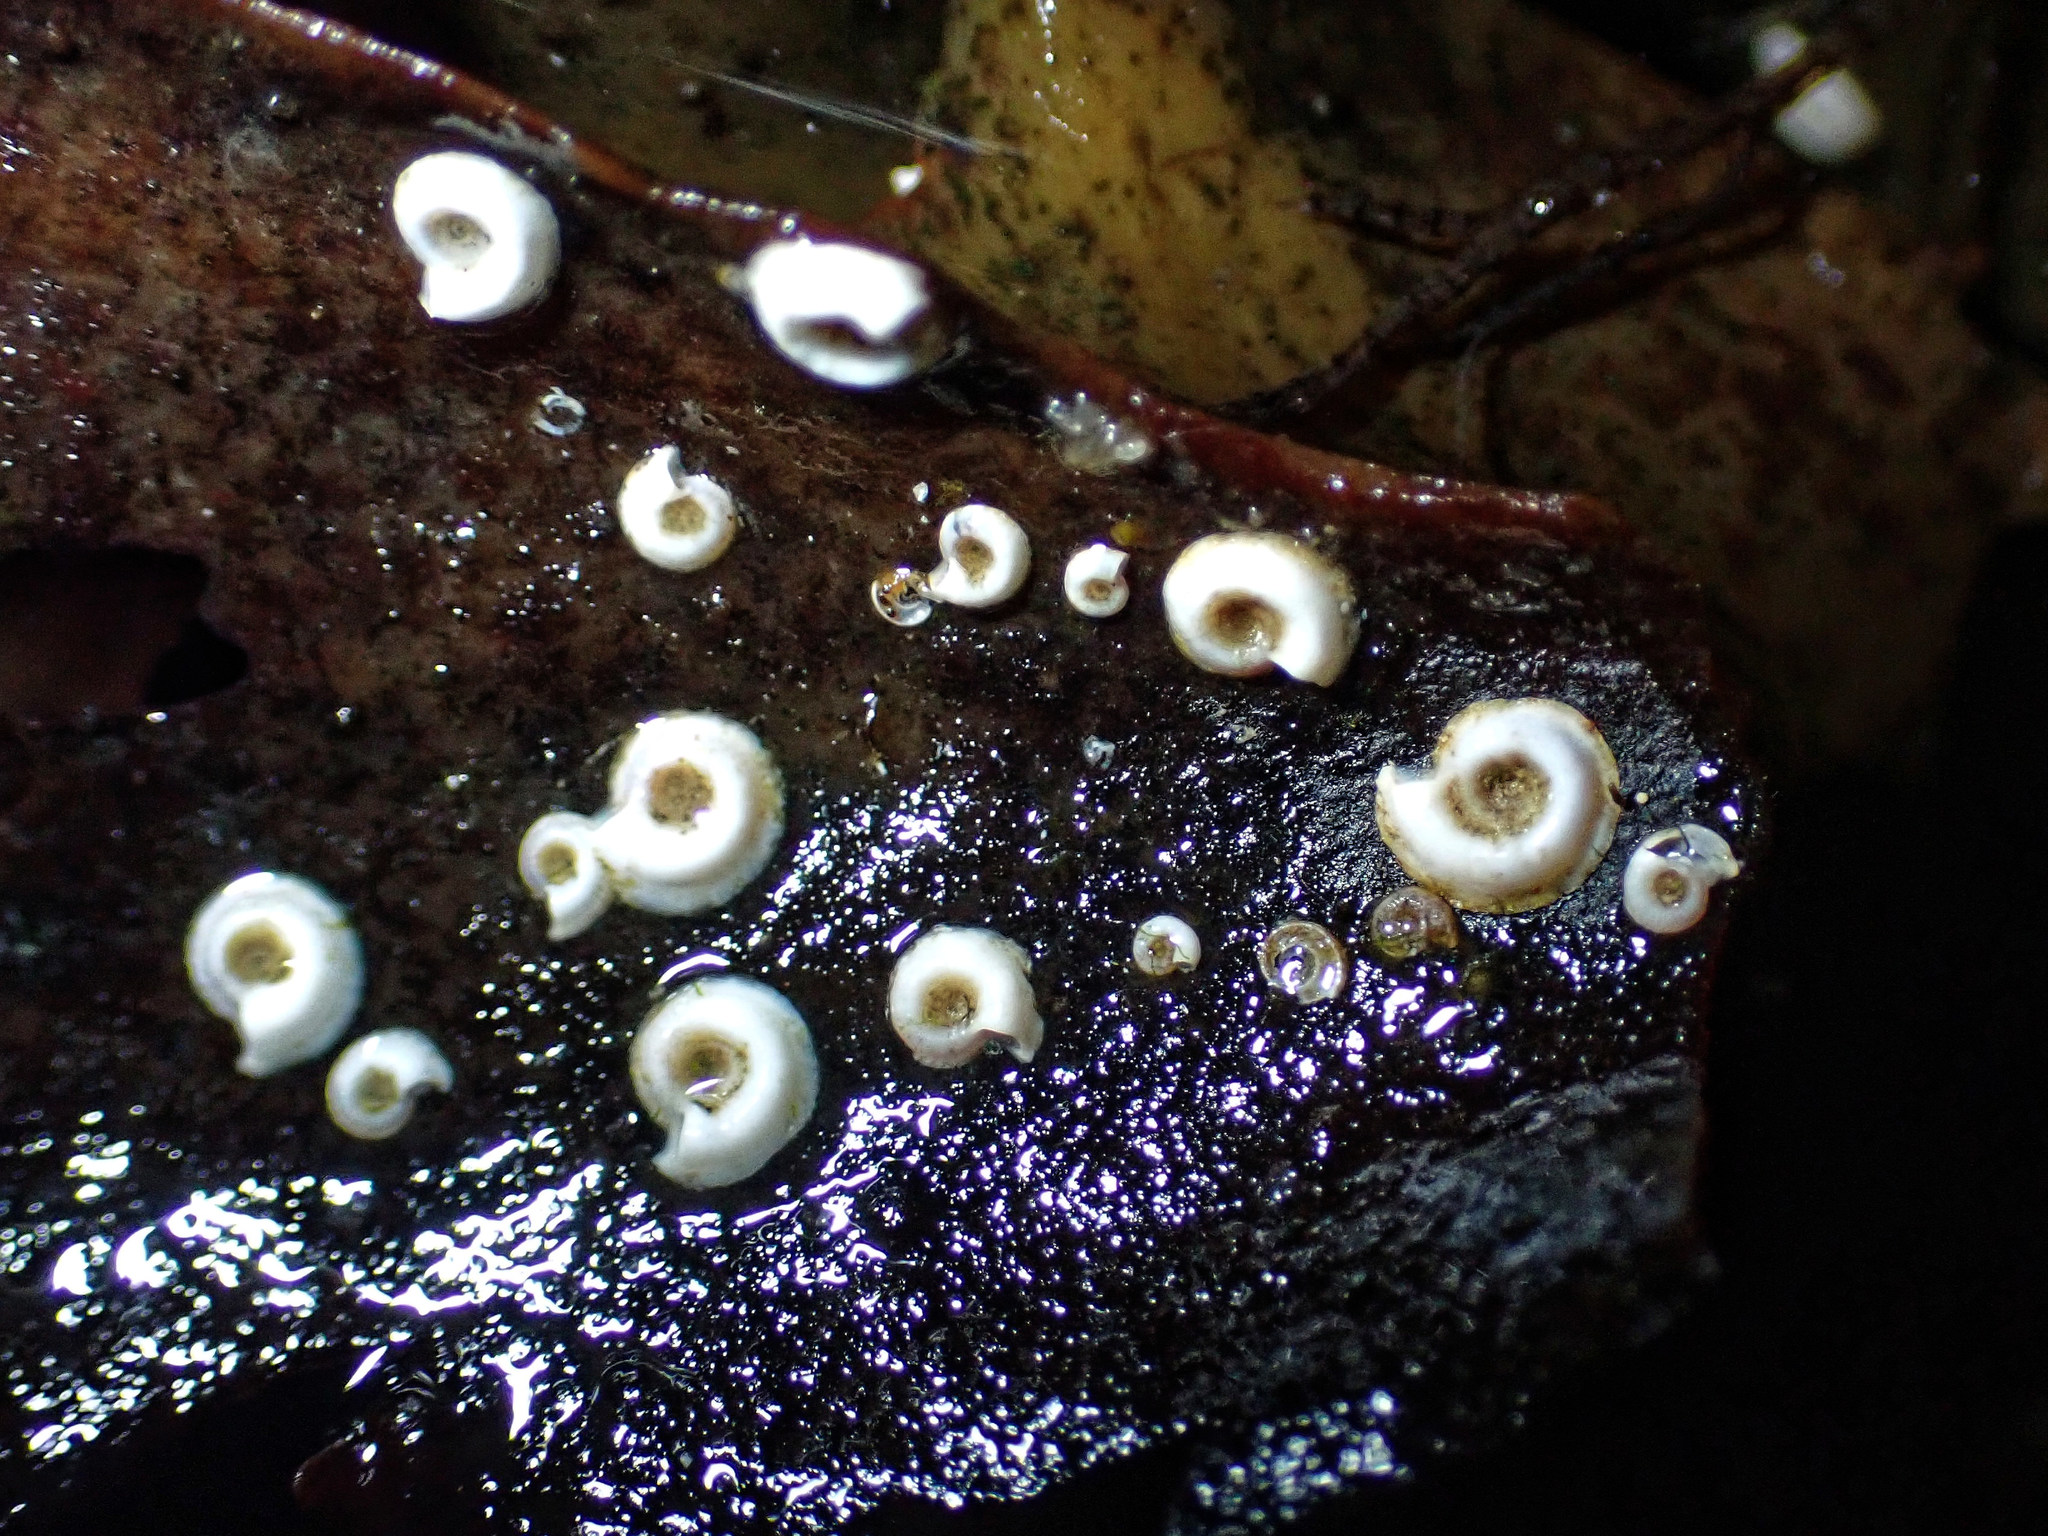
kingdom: Animalia
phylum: Annelida
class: Polychaeta
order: Sabellida
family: Serpulidae
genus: Spirorbis
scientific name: Spirorbis spirorbis
